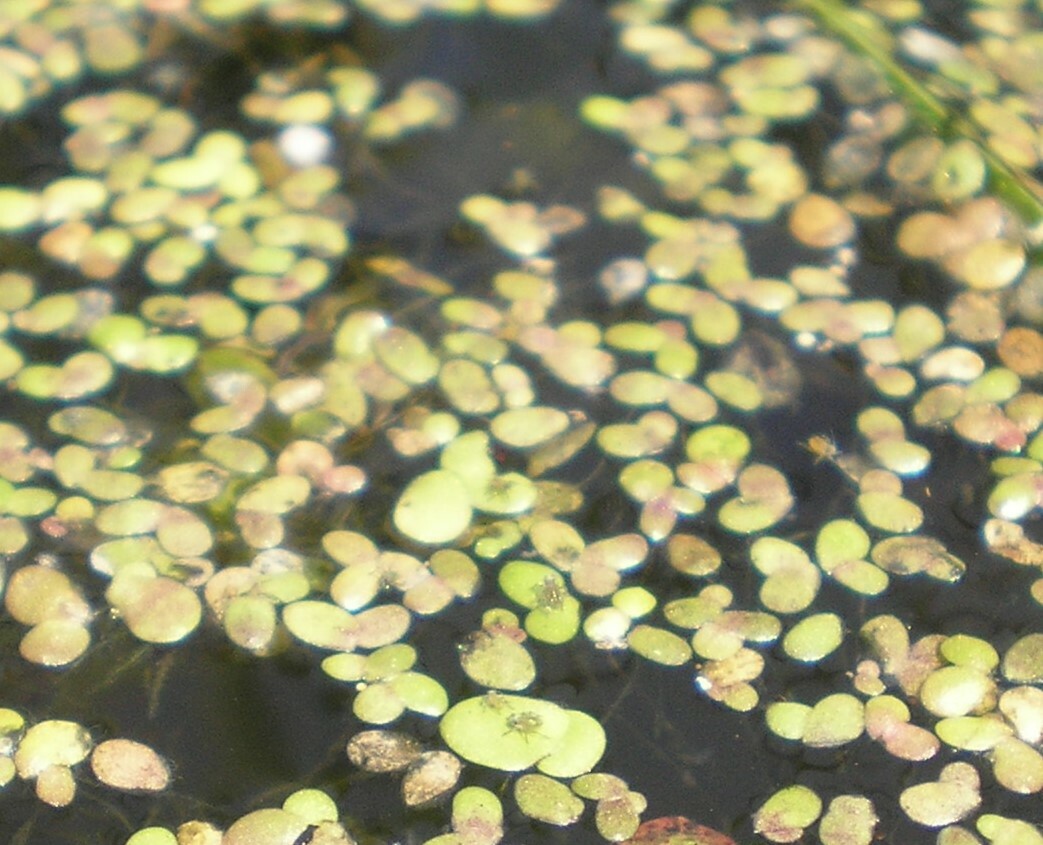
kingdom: Plantae
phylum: Tracheophyta
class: Liliopsida
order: Alismatales
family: Araceae
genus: Lemna
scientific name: Lemna turionifera
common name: Perennial duckweed
